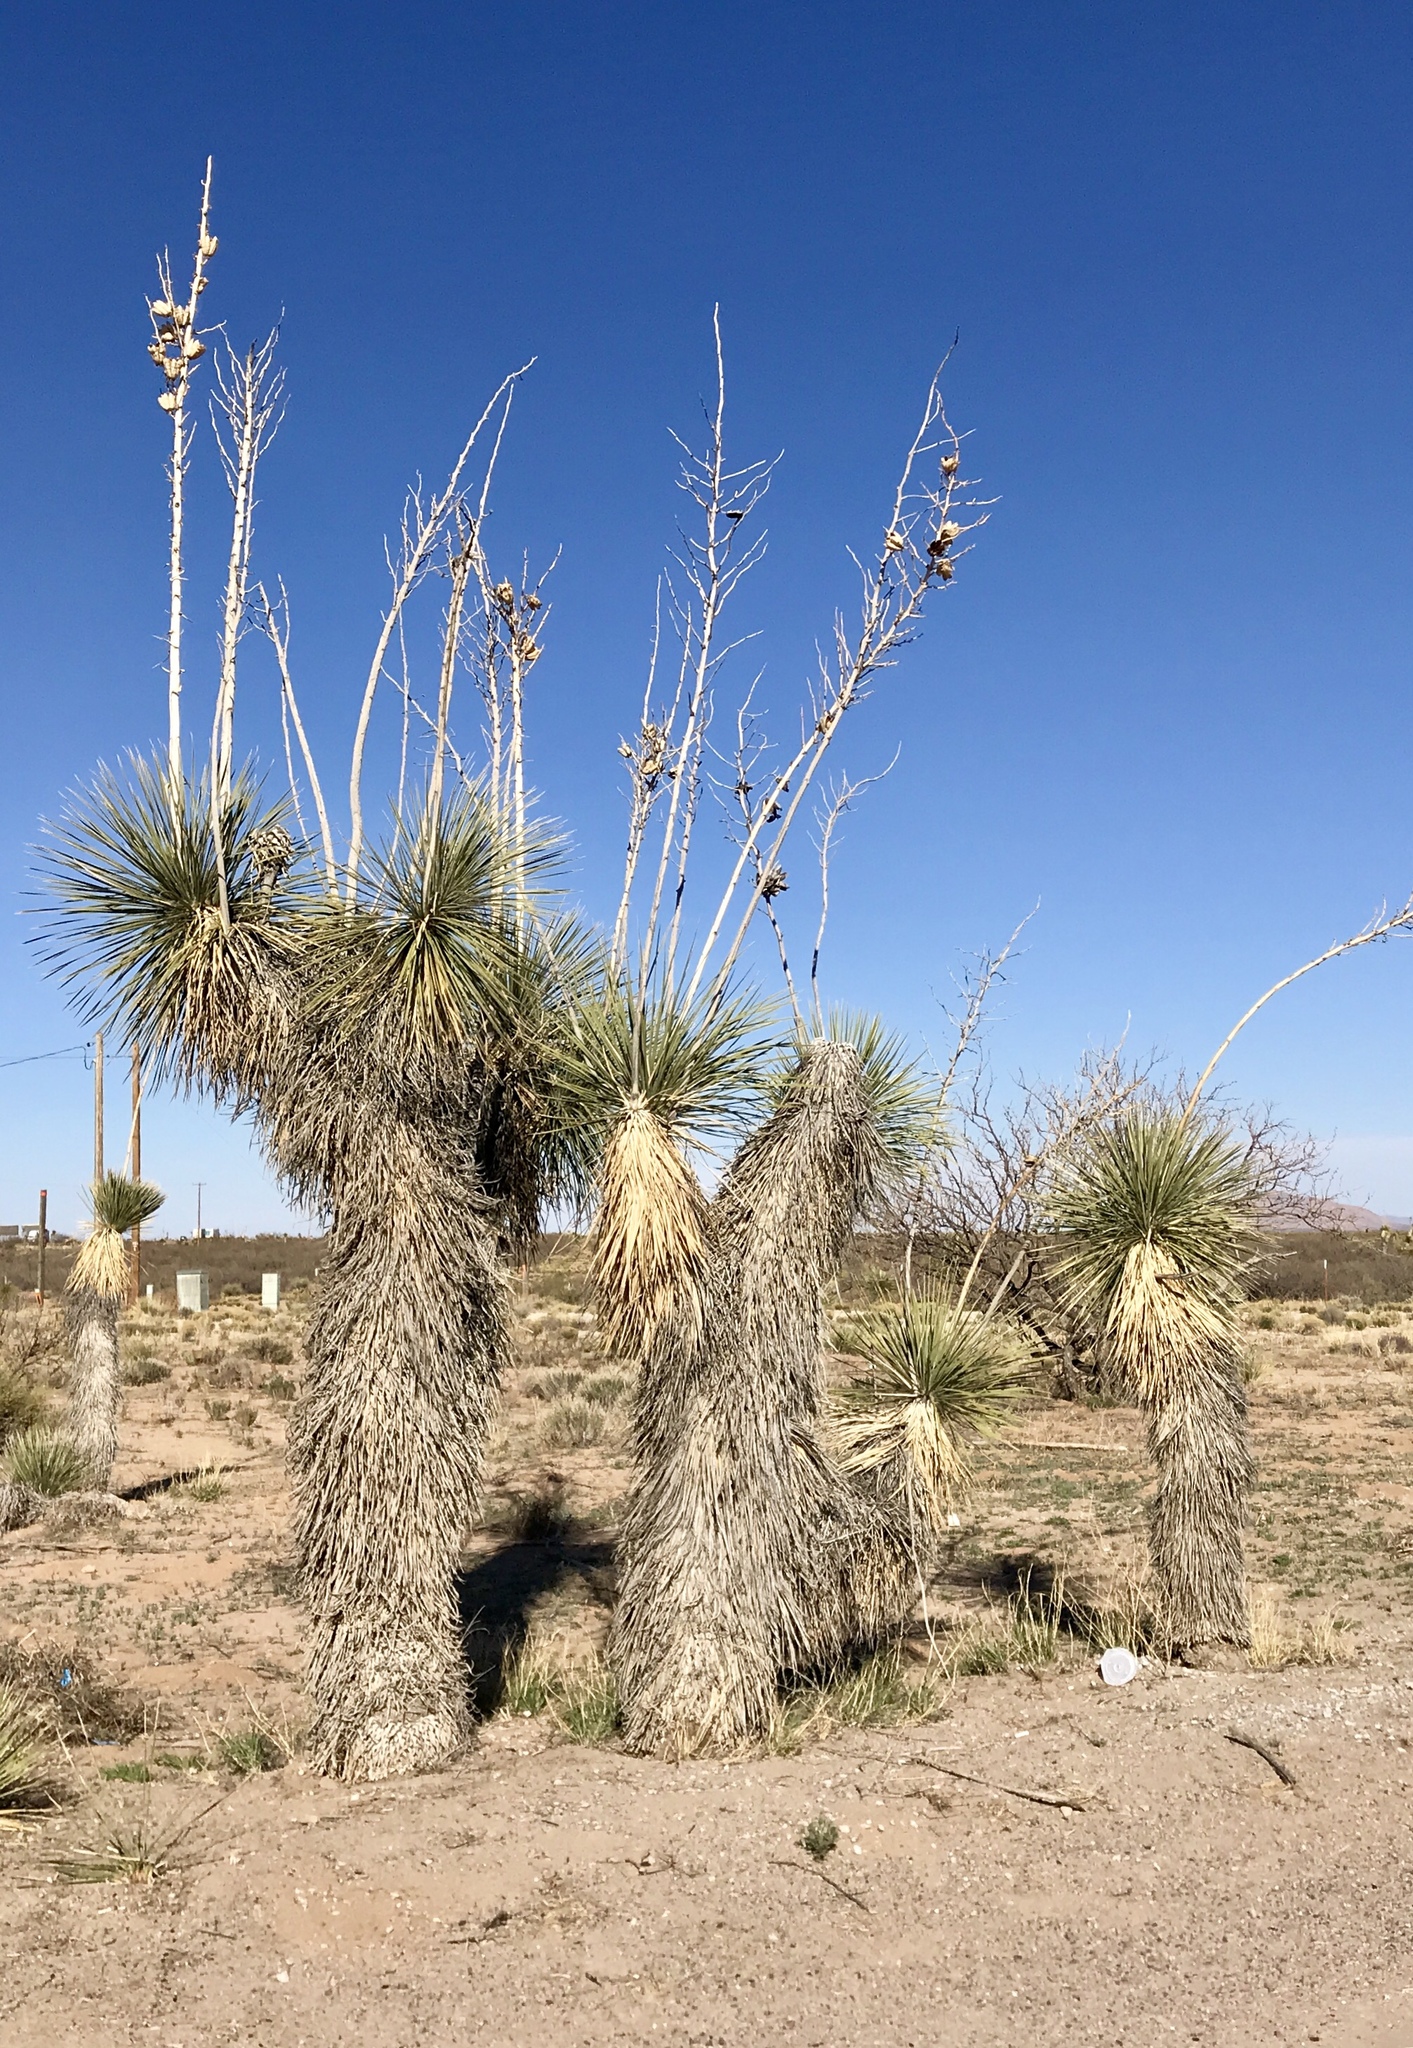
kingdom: Plantae
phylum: Tracheophyta
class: Liliopsida
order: Asparagales
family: Asparagaceae
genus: Yucca
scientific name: Yucca elata
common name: Palmella
